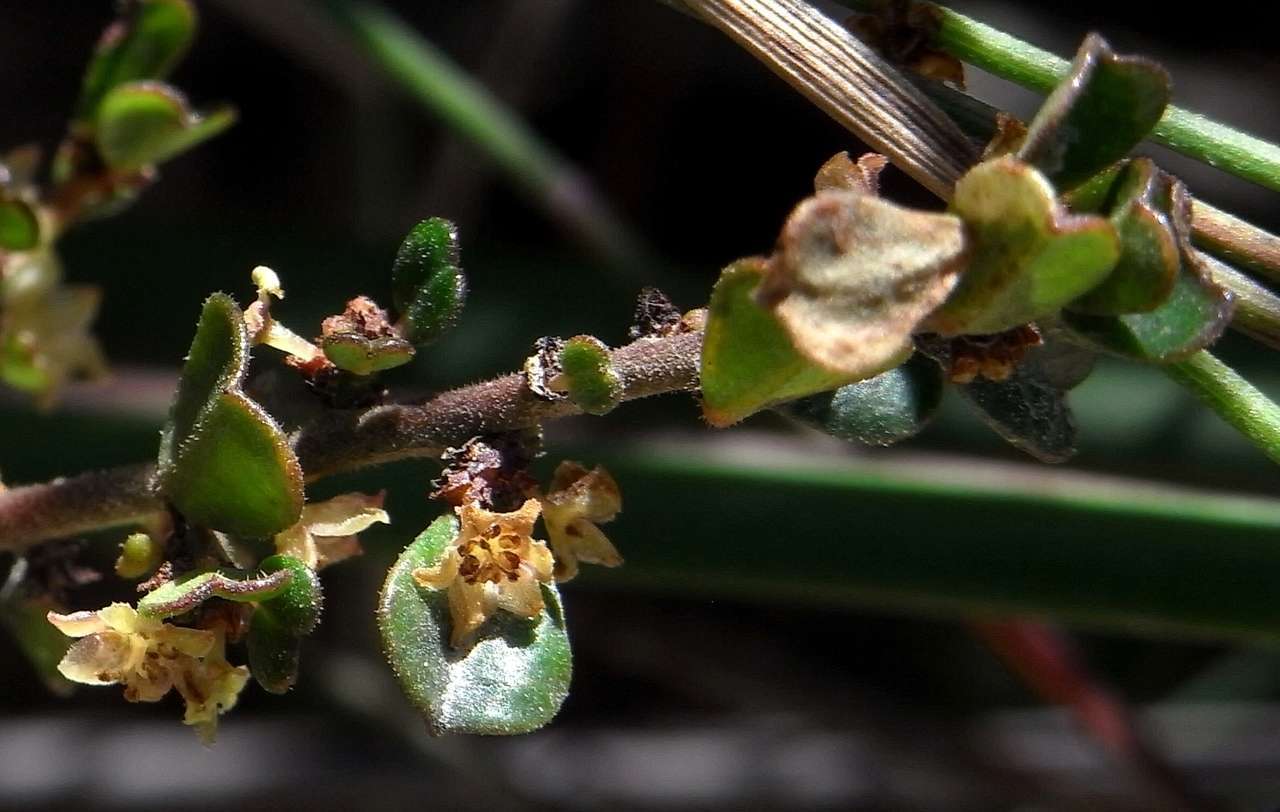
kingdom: Plantae
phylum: Tracheophyta
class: Magnoliopsida
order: Malpighiales
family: Phyllanthaceae
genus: Phyllanthus
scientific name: Phyllanthus hirtellus
